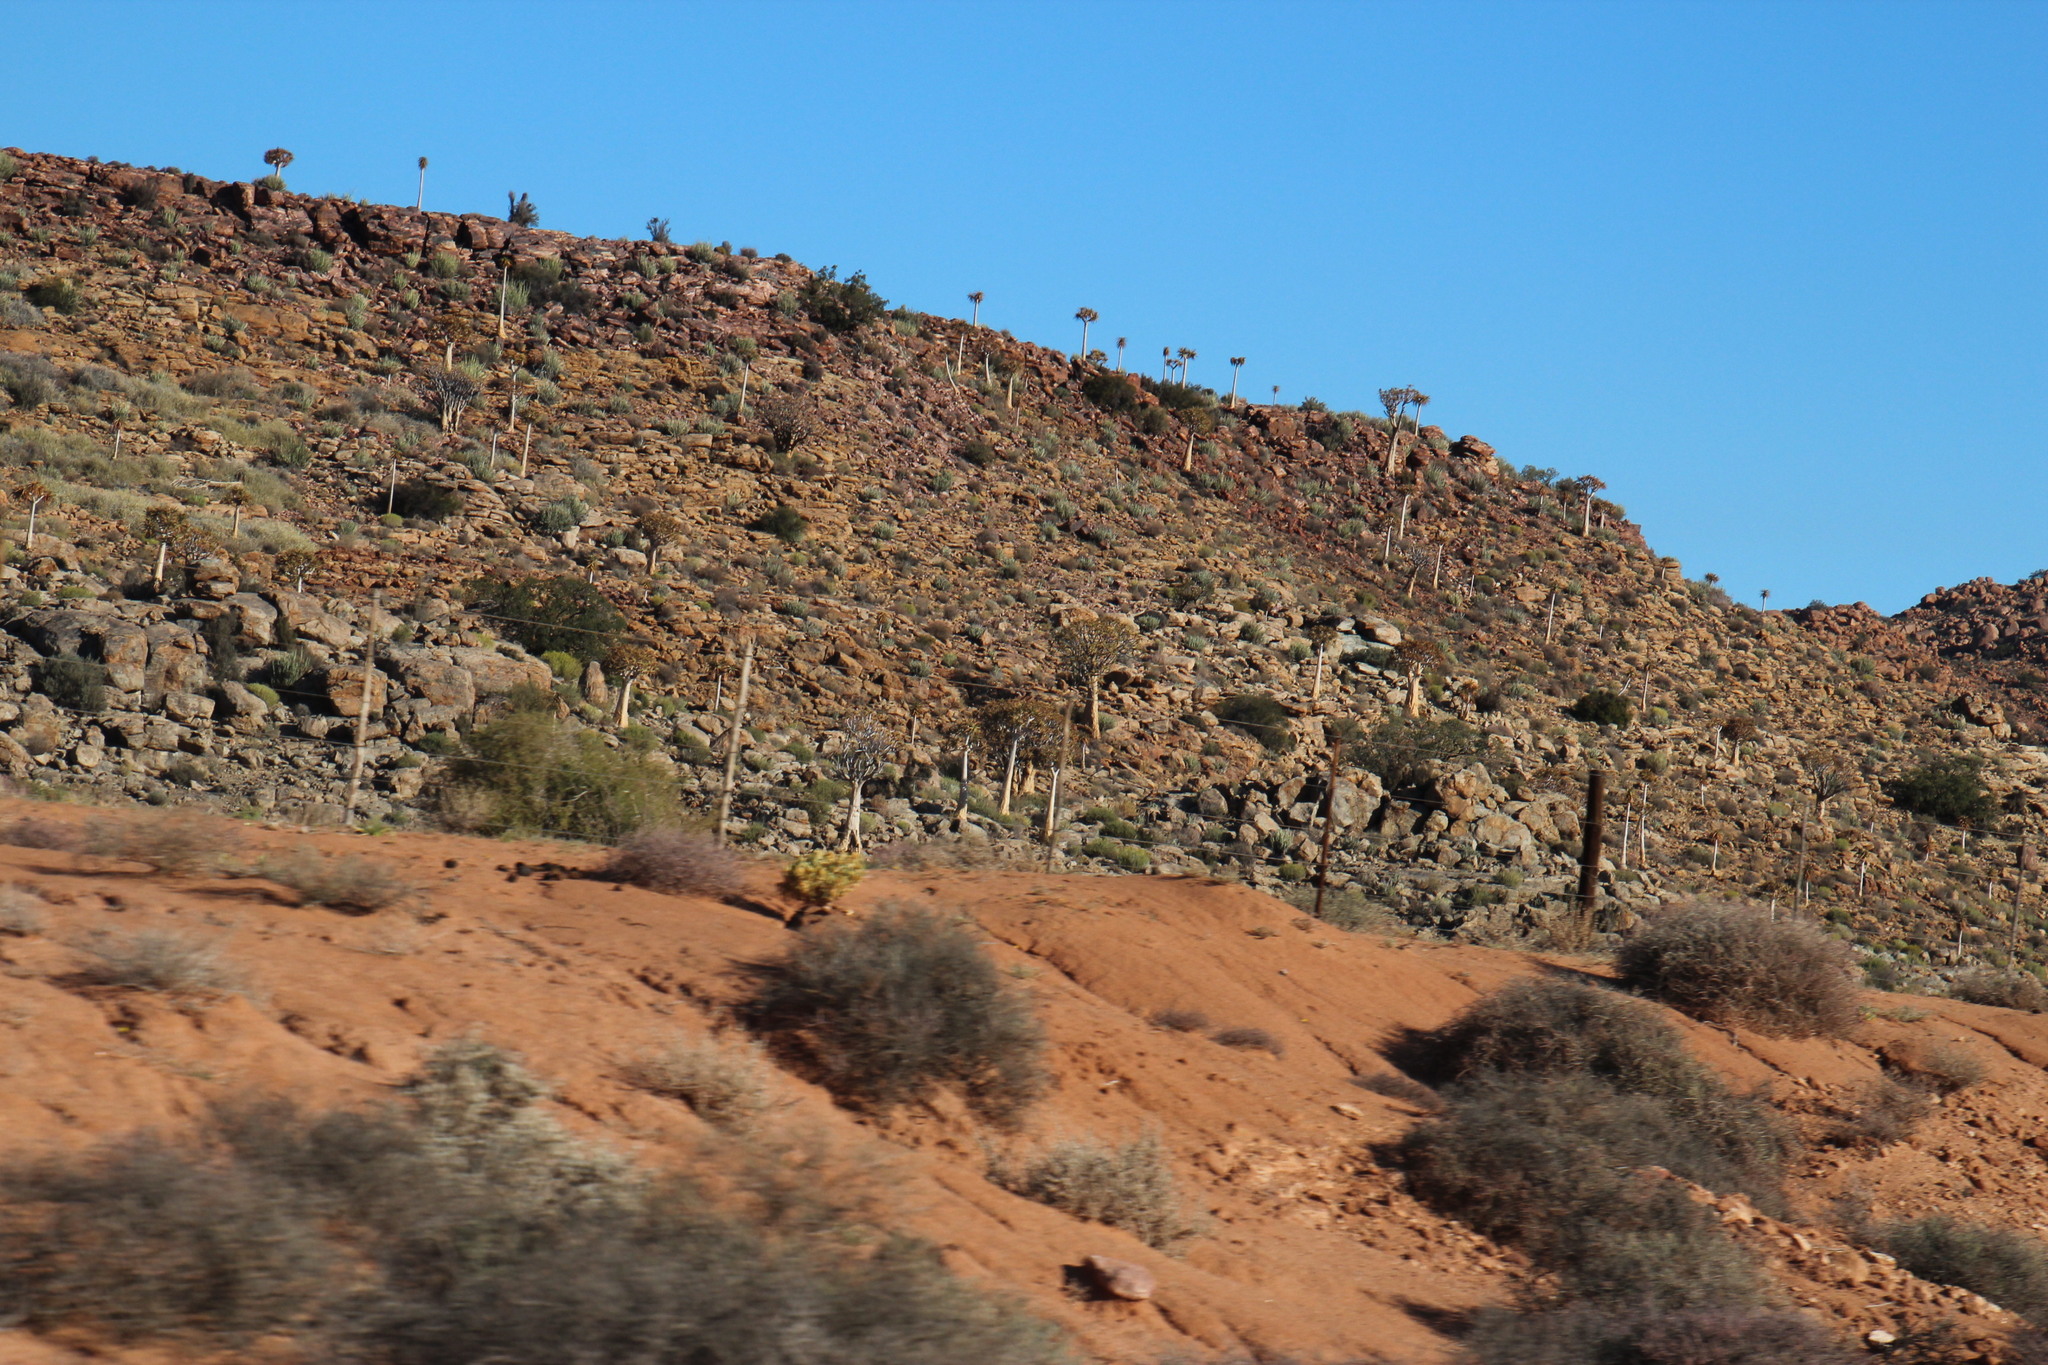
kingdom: Plantae
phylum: Tracheophyta
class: Liliopsida
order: Asparagales
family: Asphodelaceae
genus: Aloidendron
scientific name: Aloidendron dichotomum
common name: Quiver tree
